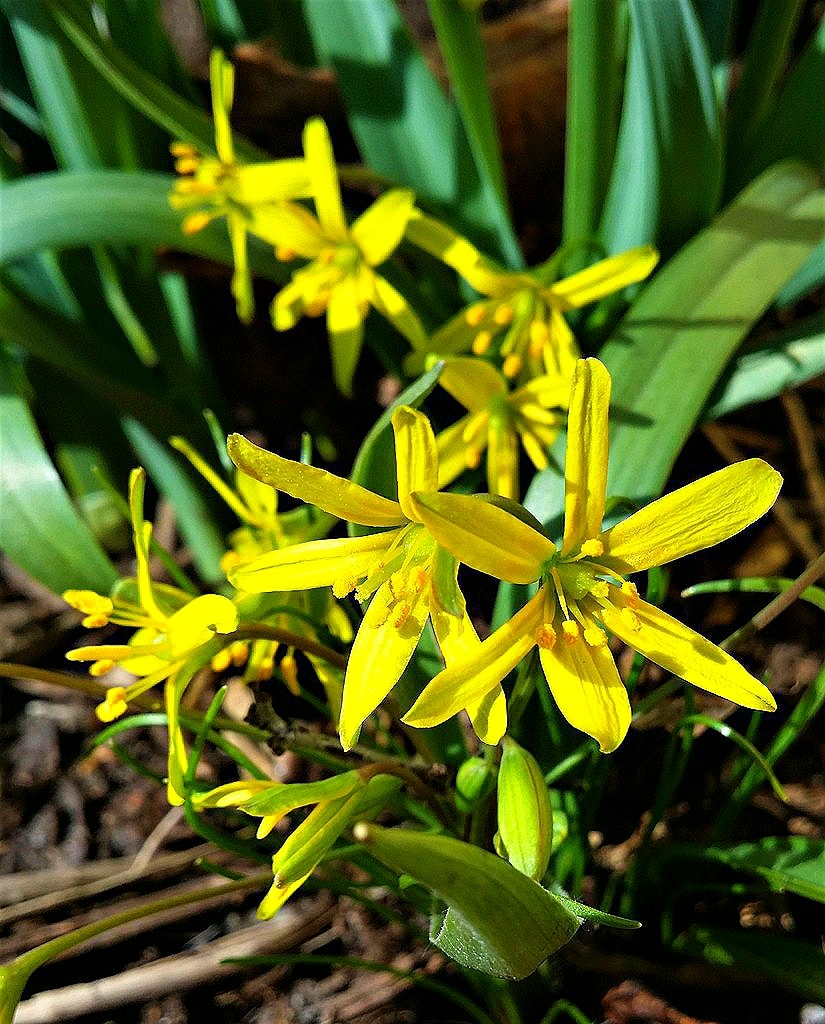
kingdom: Plantae
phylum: Tracheophyta
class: Liliopsida
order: Liliales
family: Liliaceae
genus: Gagea
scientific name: Gagea lutea
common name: Yellow star-of-bethlehem
